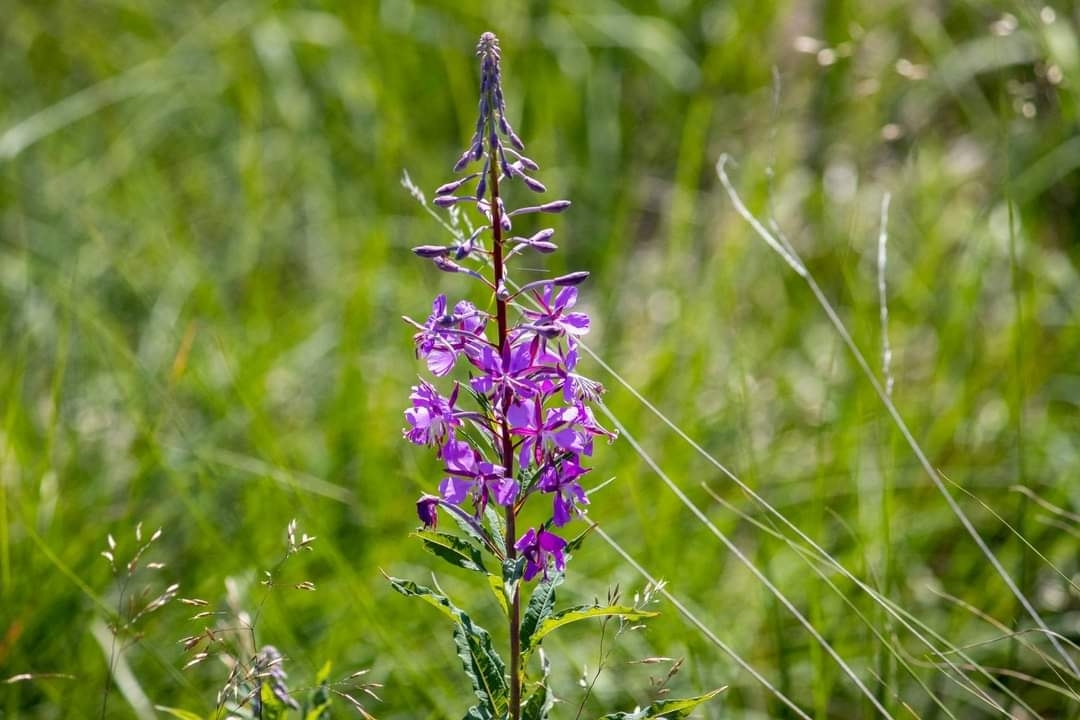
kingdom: Plantae
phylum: Tracheophyta
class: Magnoliopsida
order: Myrtales
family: Onagraceae
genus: Chamaenerion
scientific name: Chamaenerion angustifolium
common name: Fireweed
